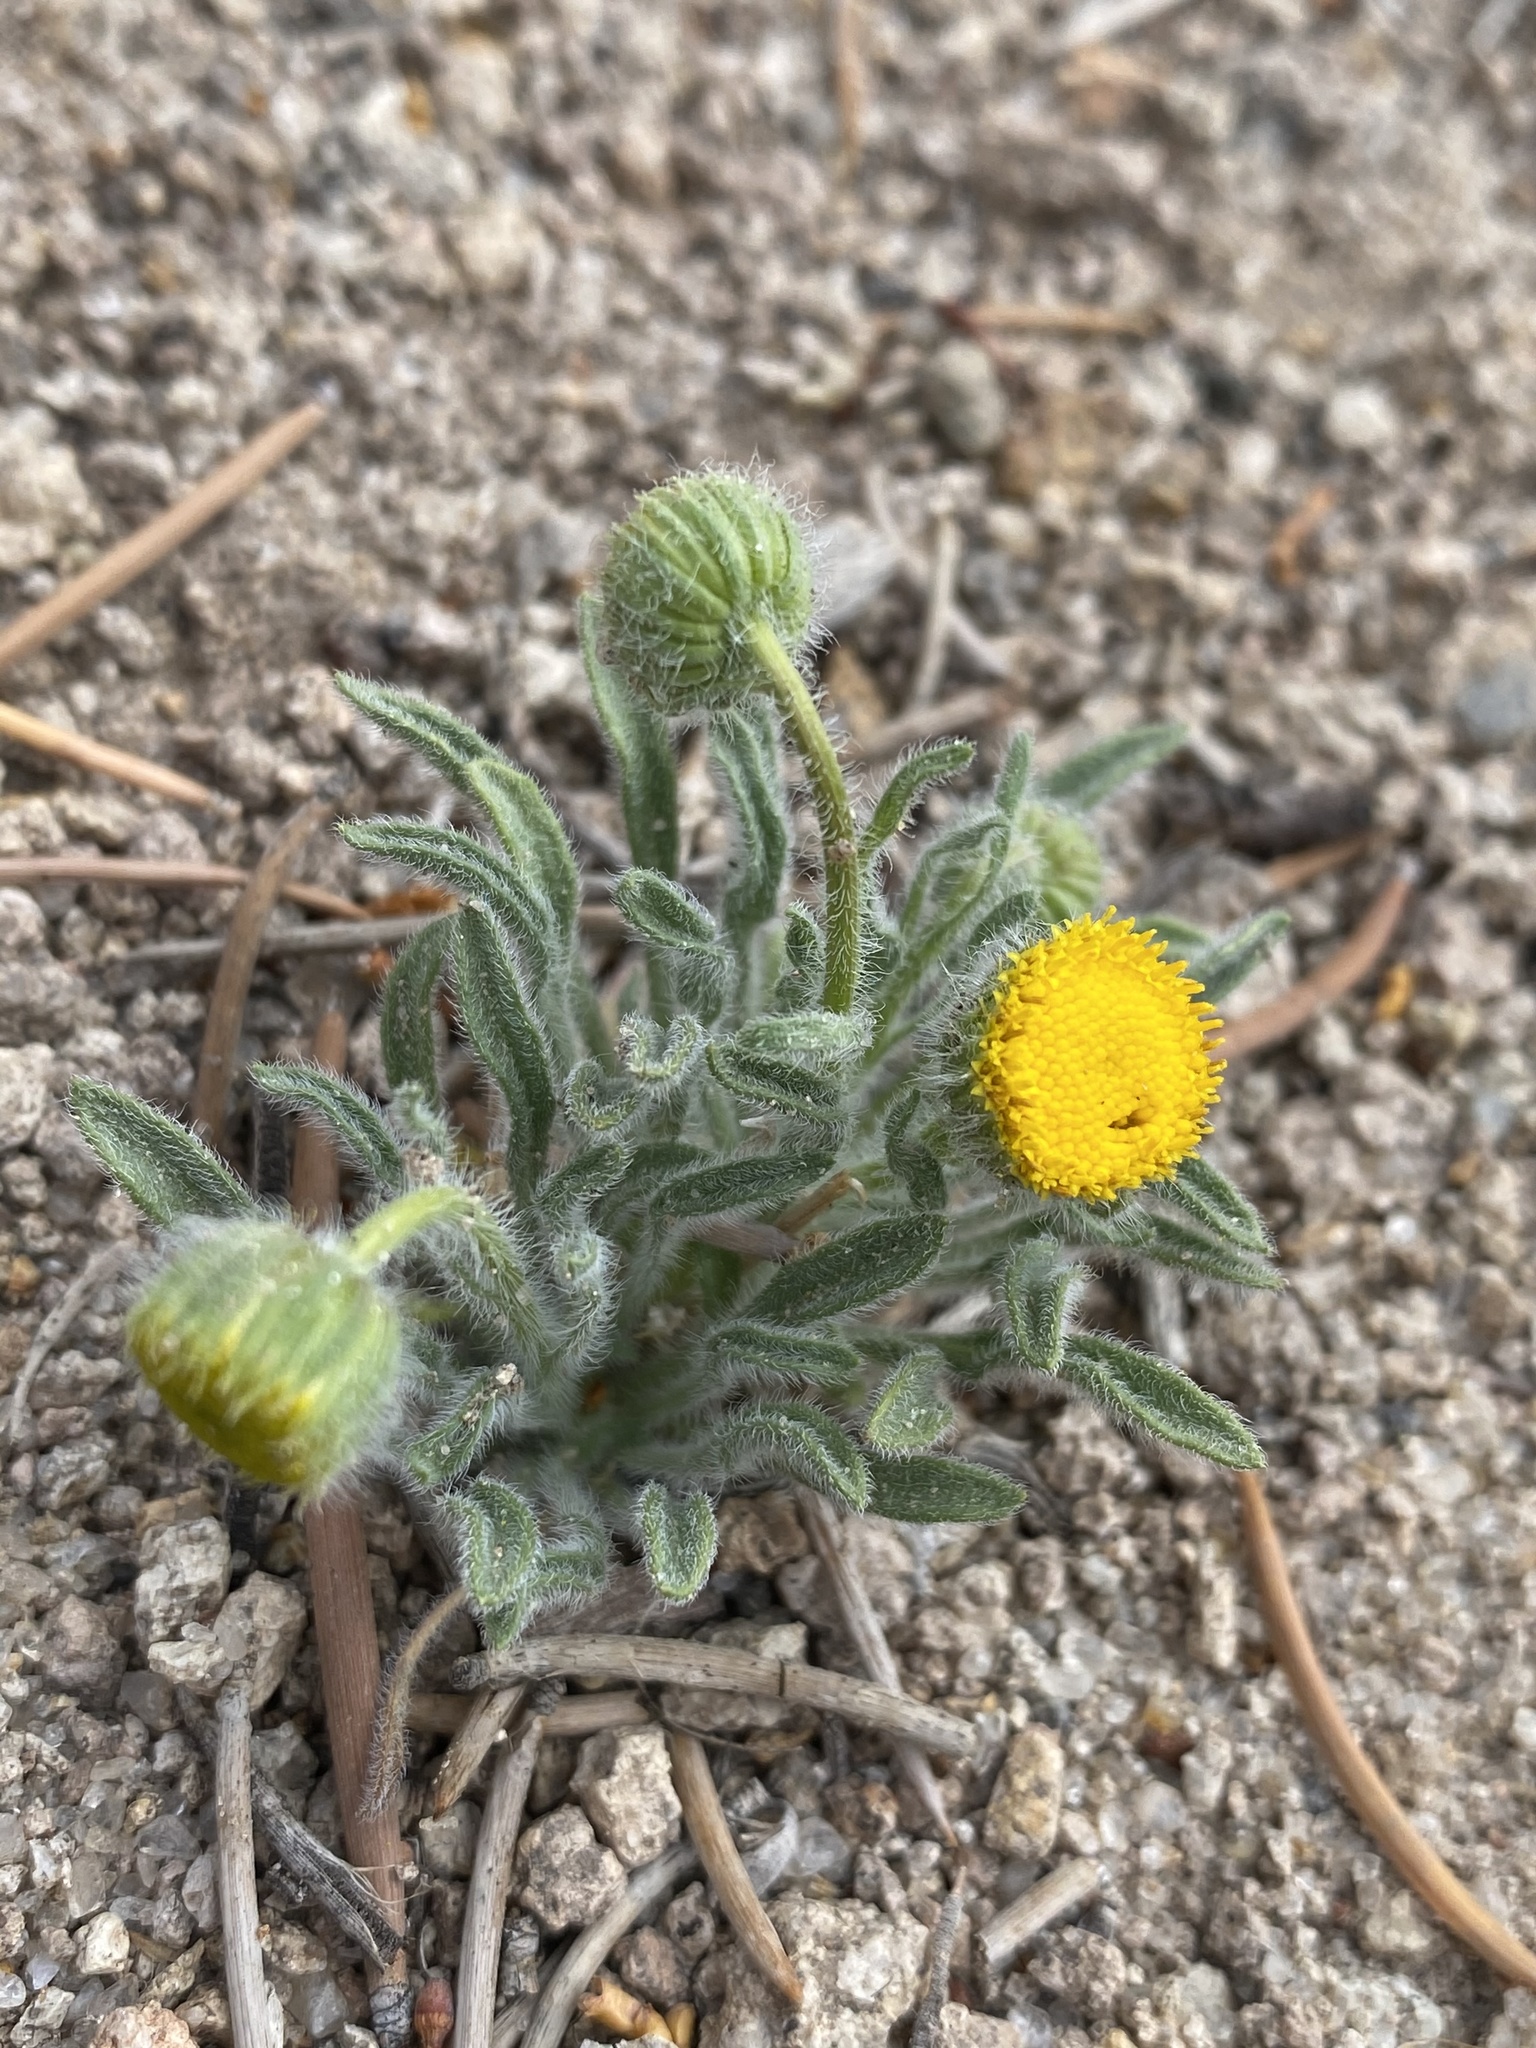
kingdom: Plantae
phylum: Tracheophyta
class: Magnoliopsida
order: Asterales
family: Asteraceae
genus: Erigeron
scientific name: Erigeron aphanactis
